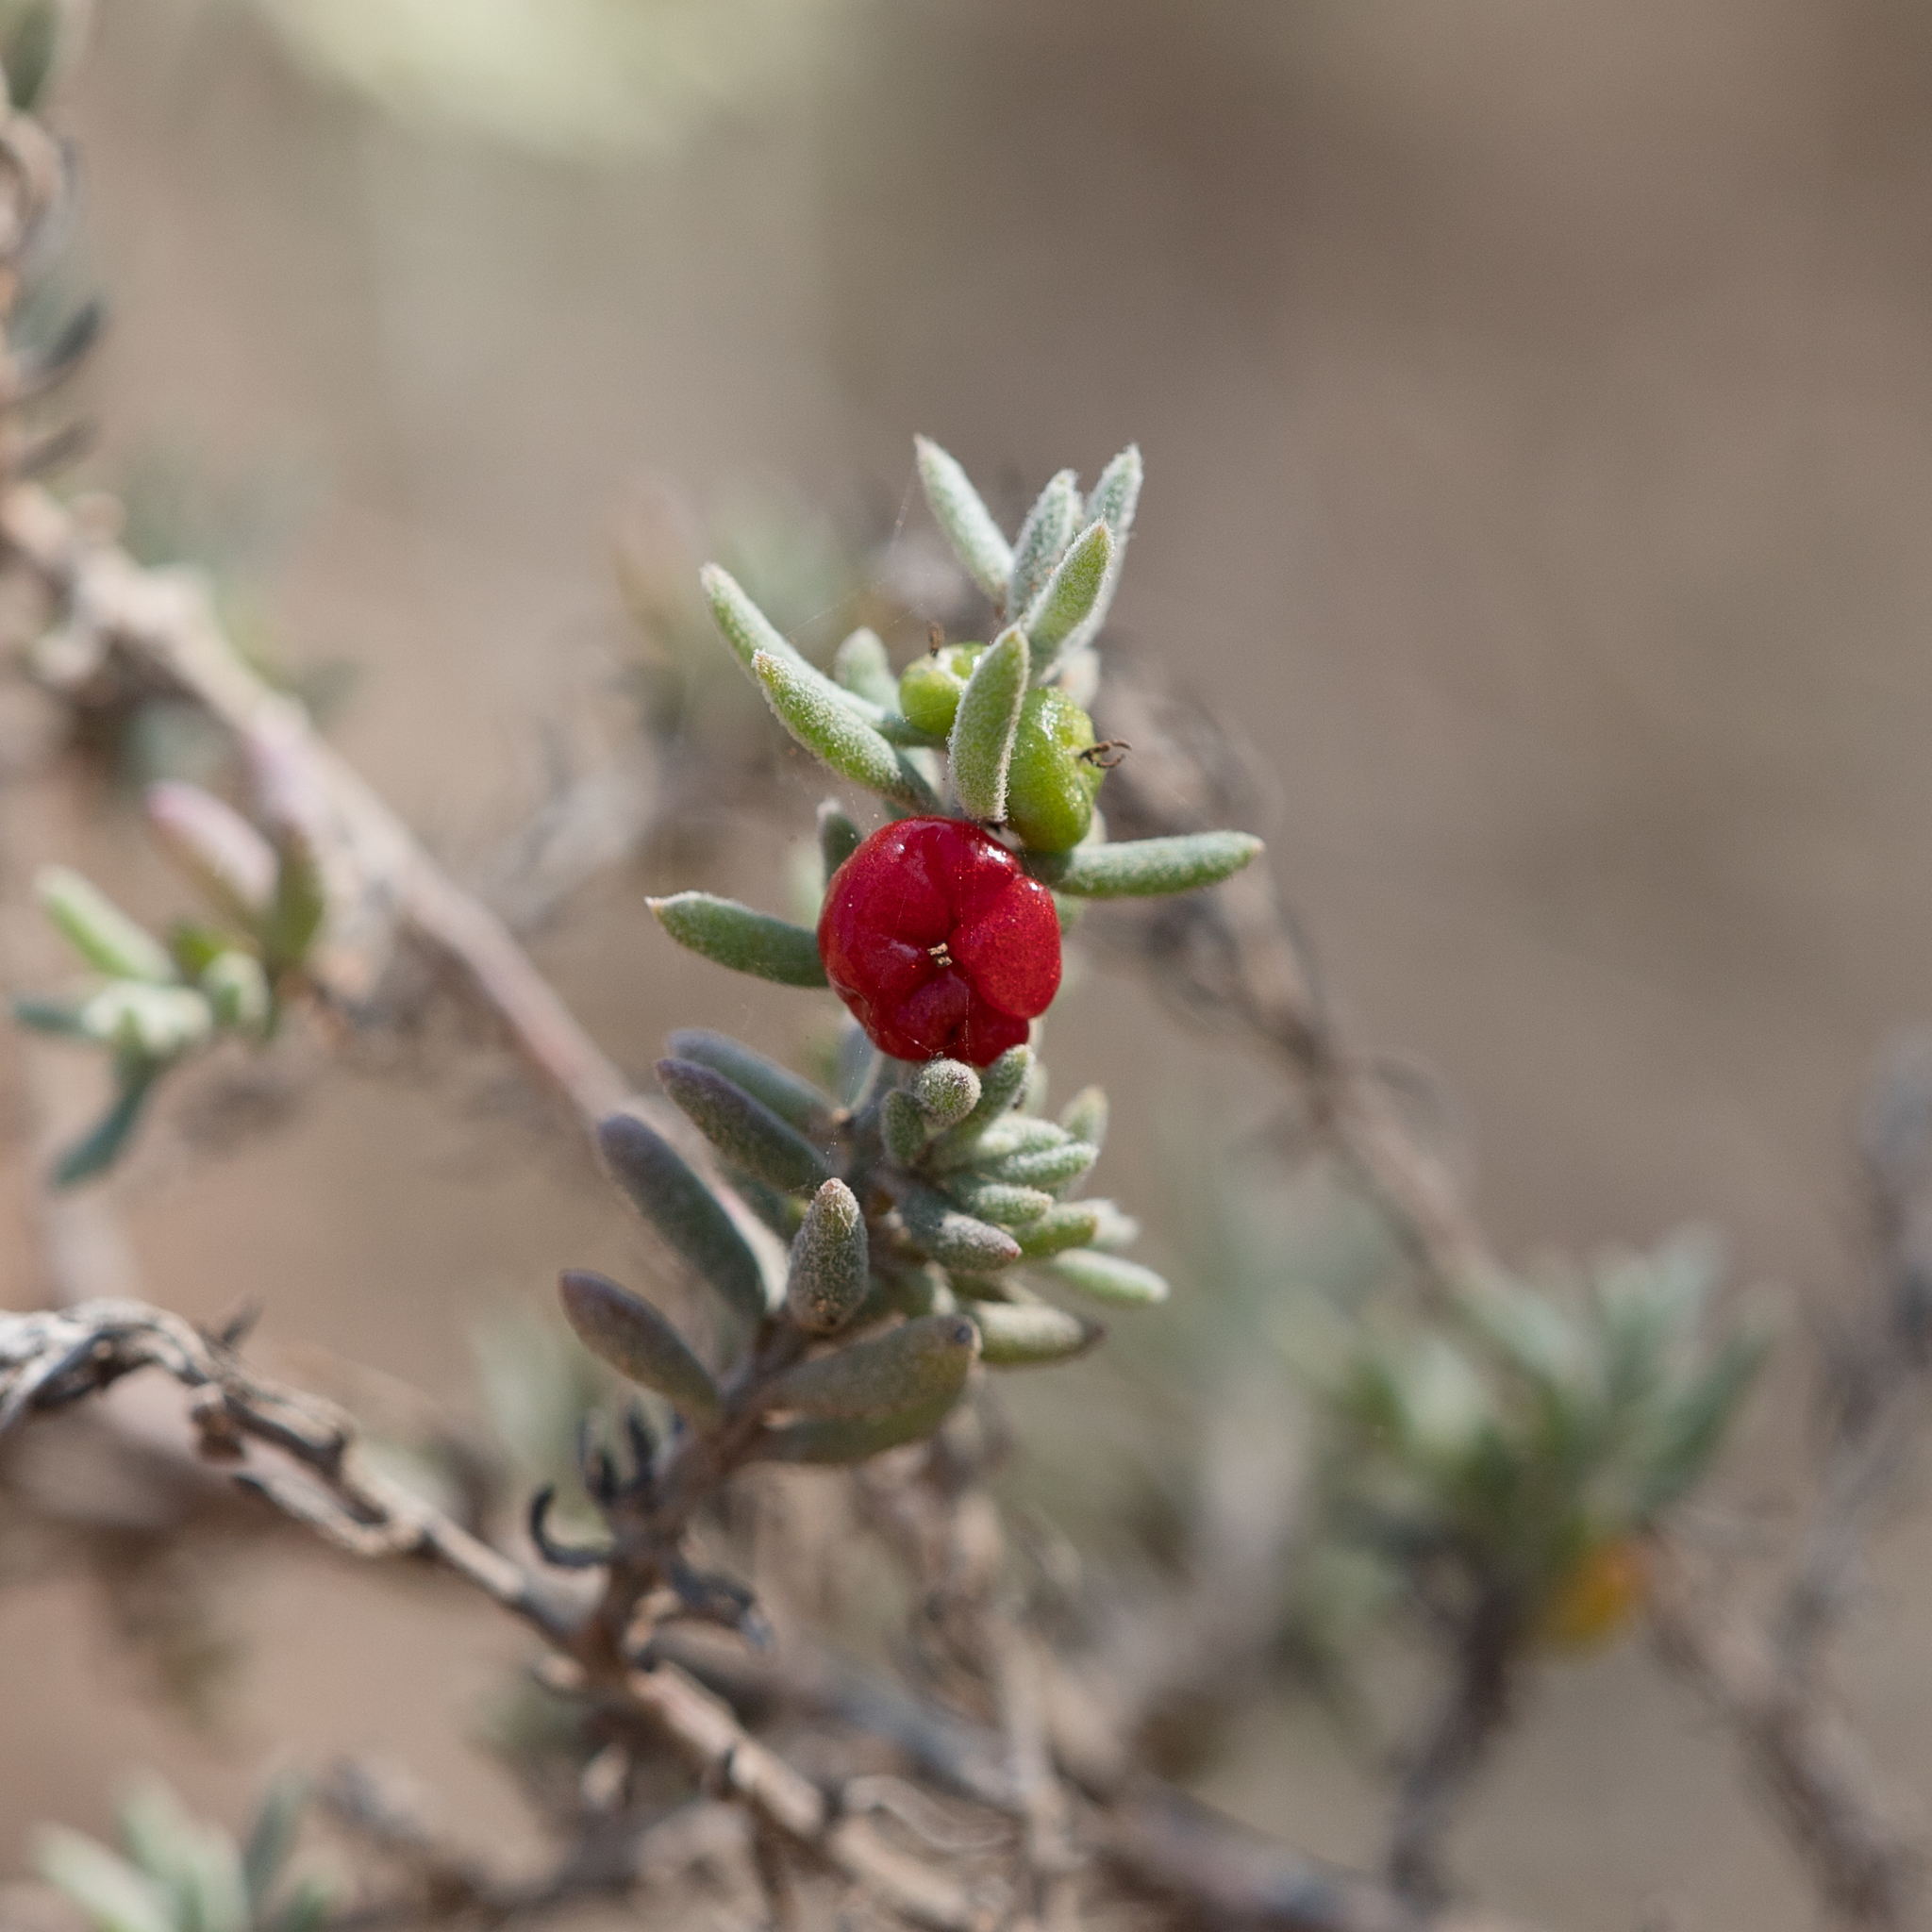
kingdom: Plantae
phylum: Tracheophyta
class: Magnoliopsida
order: Caryophyllales
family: Amaranthaceae
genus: Enchylaena
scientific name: Enchylaena tomentosa
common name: Ruby saltbush
